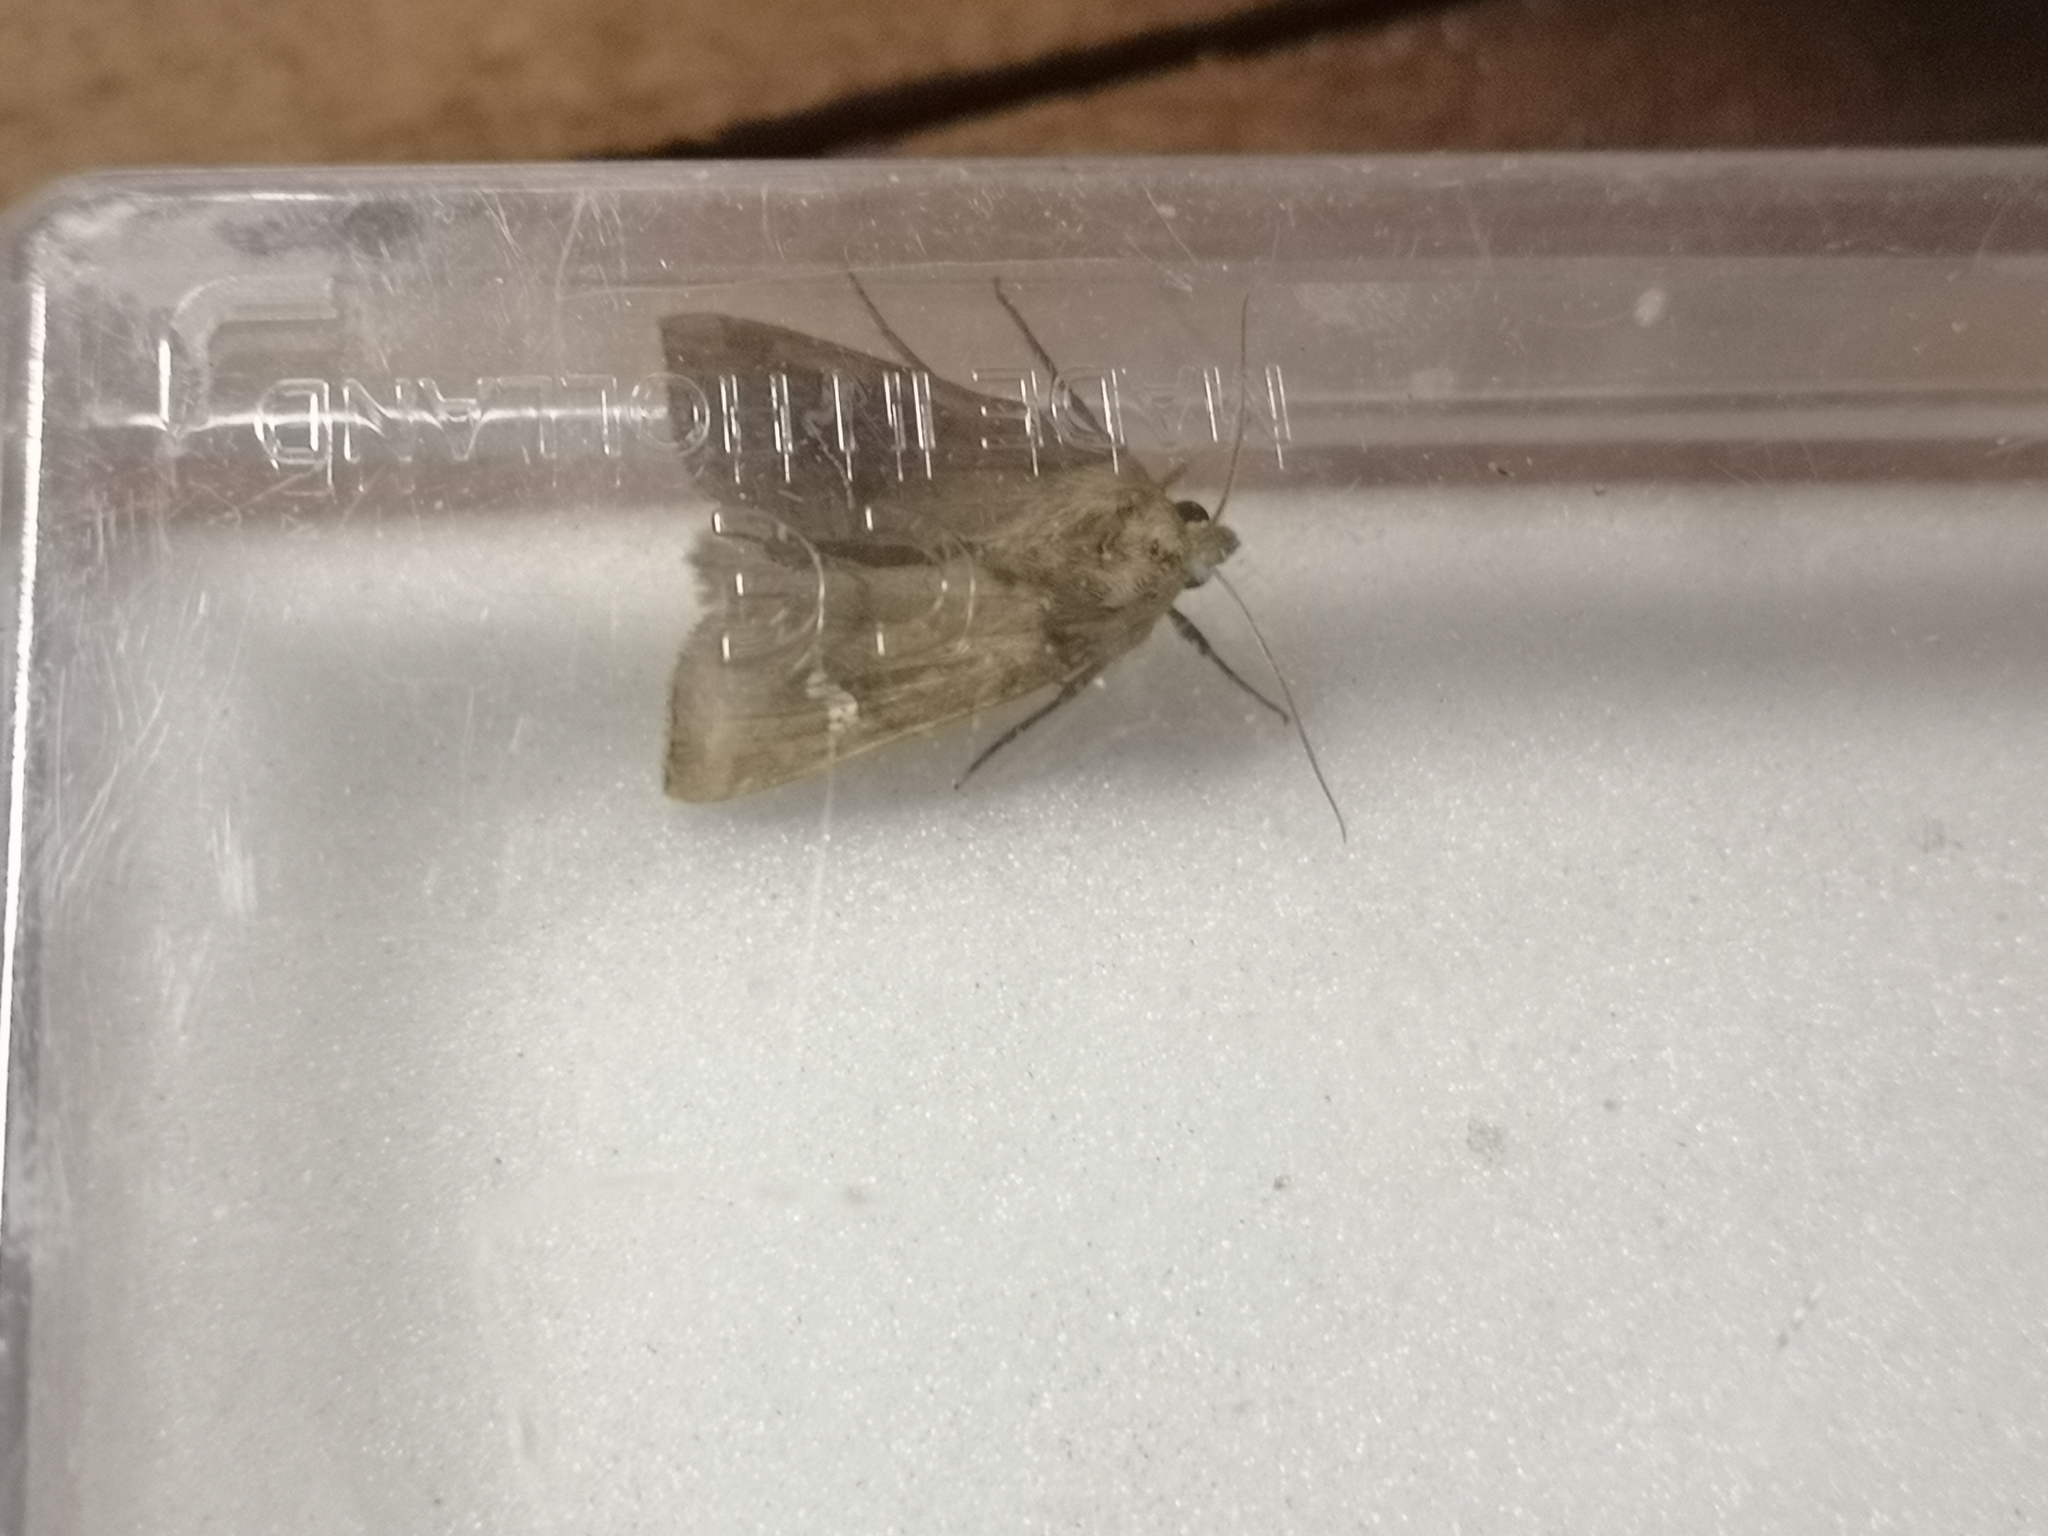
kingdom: Animalia
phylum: Arthropoda
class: Insecta
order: Lepidoptera
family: Noctuidae
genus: Amphipoea
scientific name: Amphipoea
